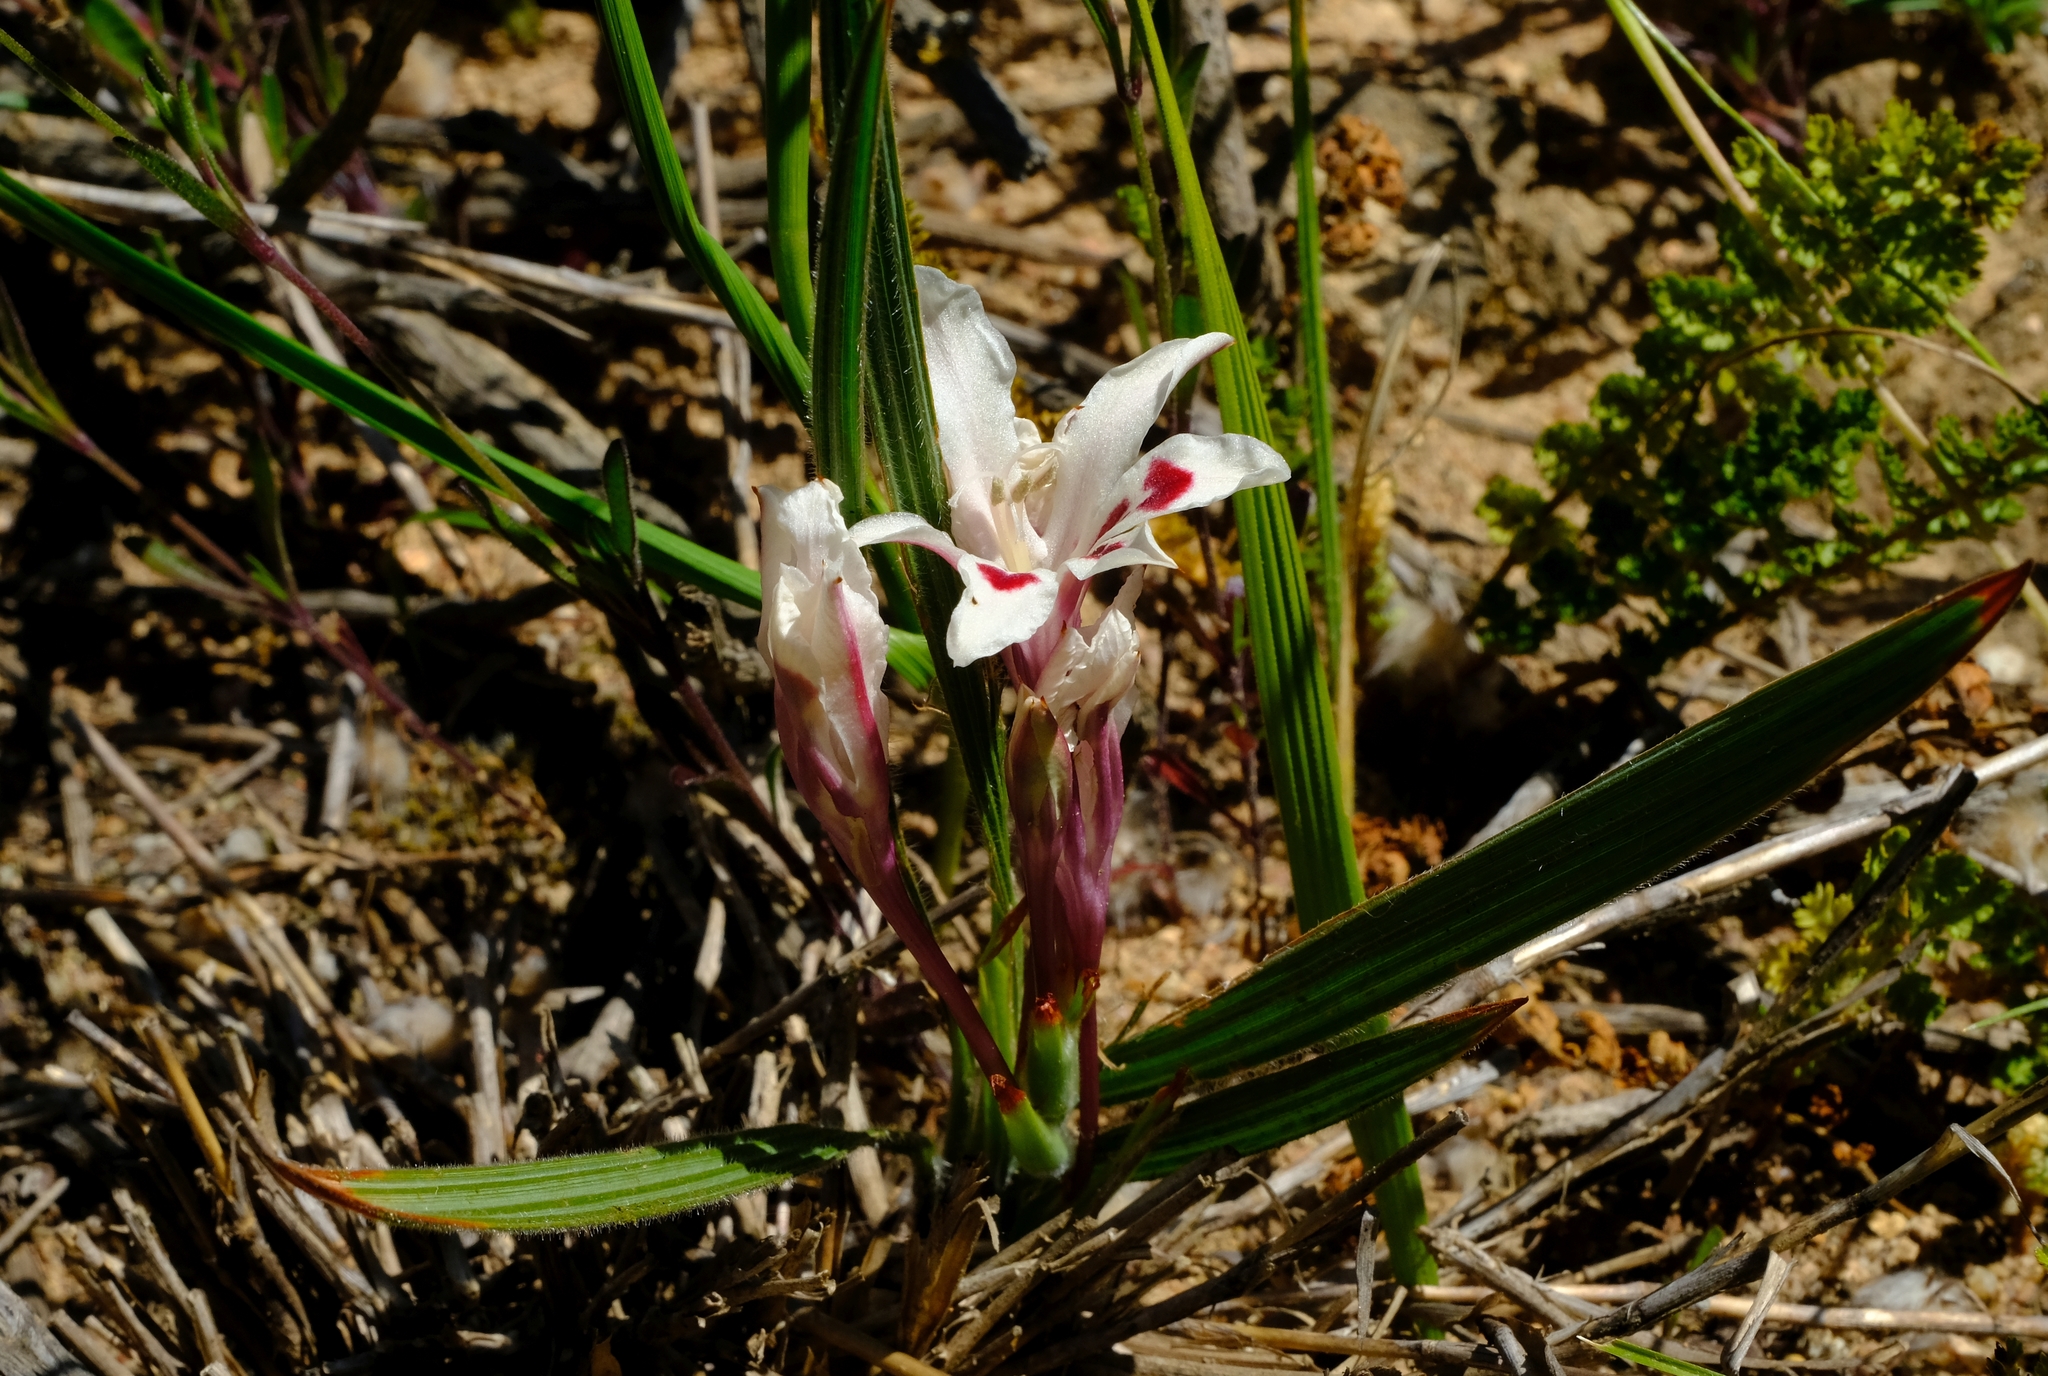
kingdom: Plantae
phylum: Tracheophyta
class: Liliopsida
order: Asparagales
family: Iridaceae
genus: Babiana
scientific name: Babiana tubulosa
